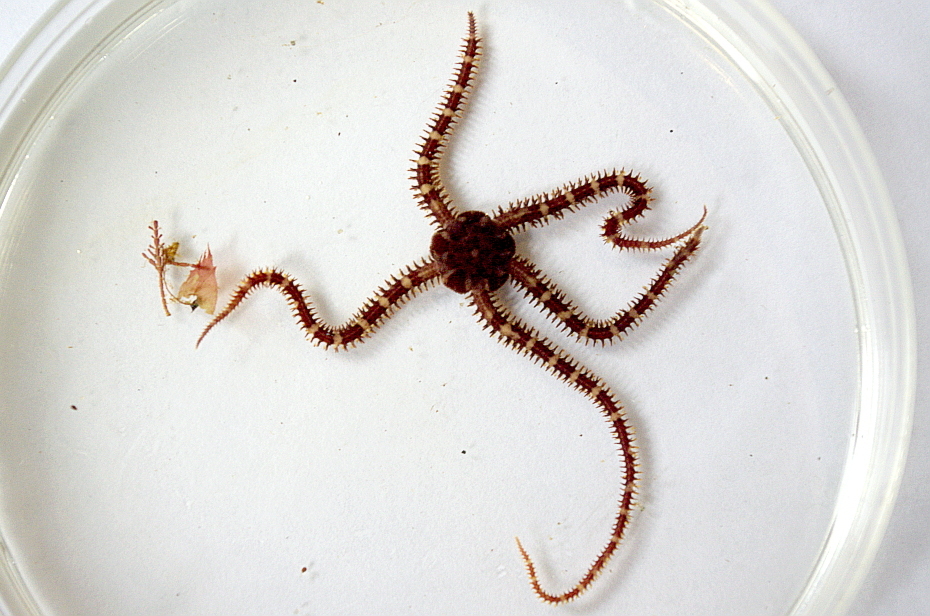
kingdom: Animalia
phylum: Echinodermata
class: Ophiuroidea
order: Amphilepidida
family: Ophiopholidae
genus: Ophiopholis
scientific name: Ophiopholis aculeata
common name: Crevice brittlestar
